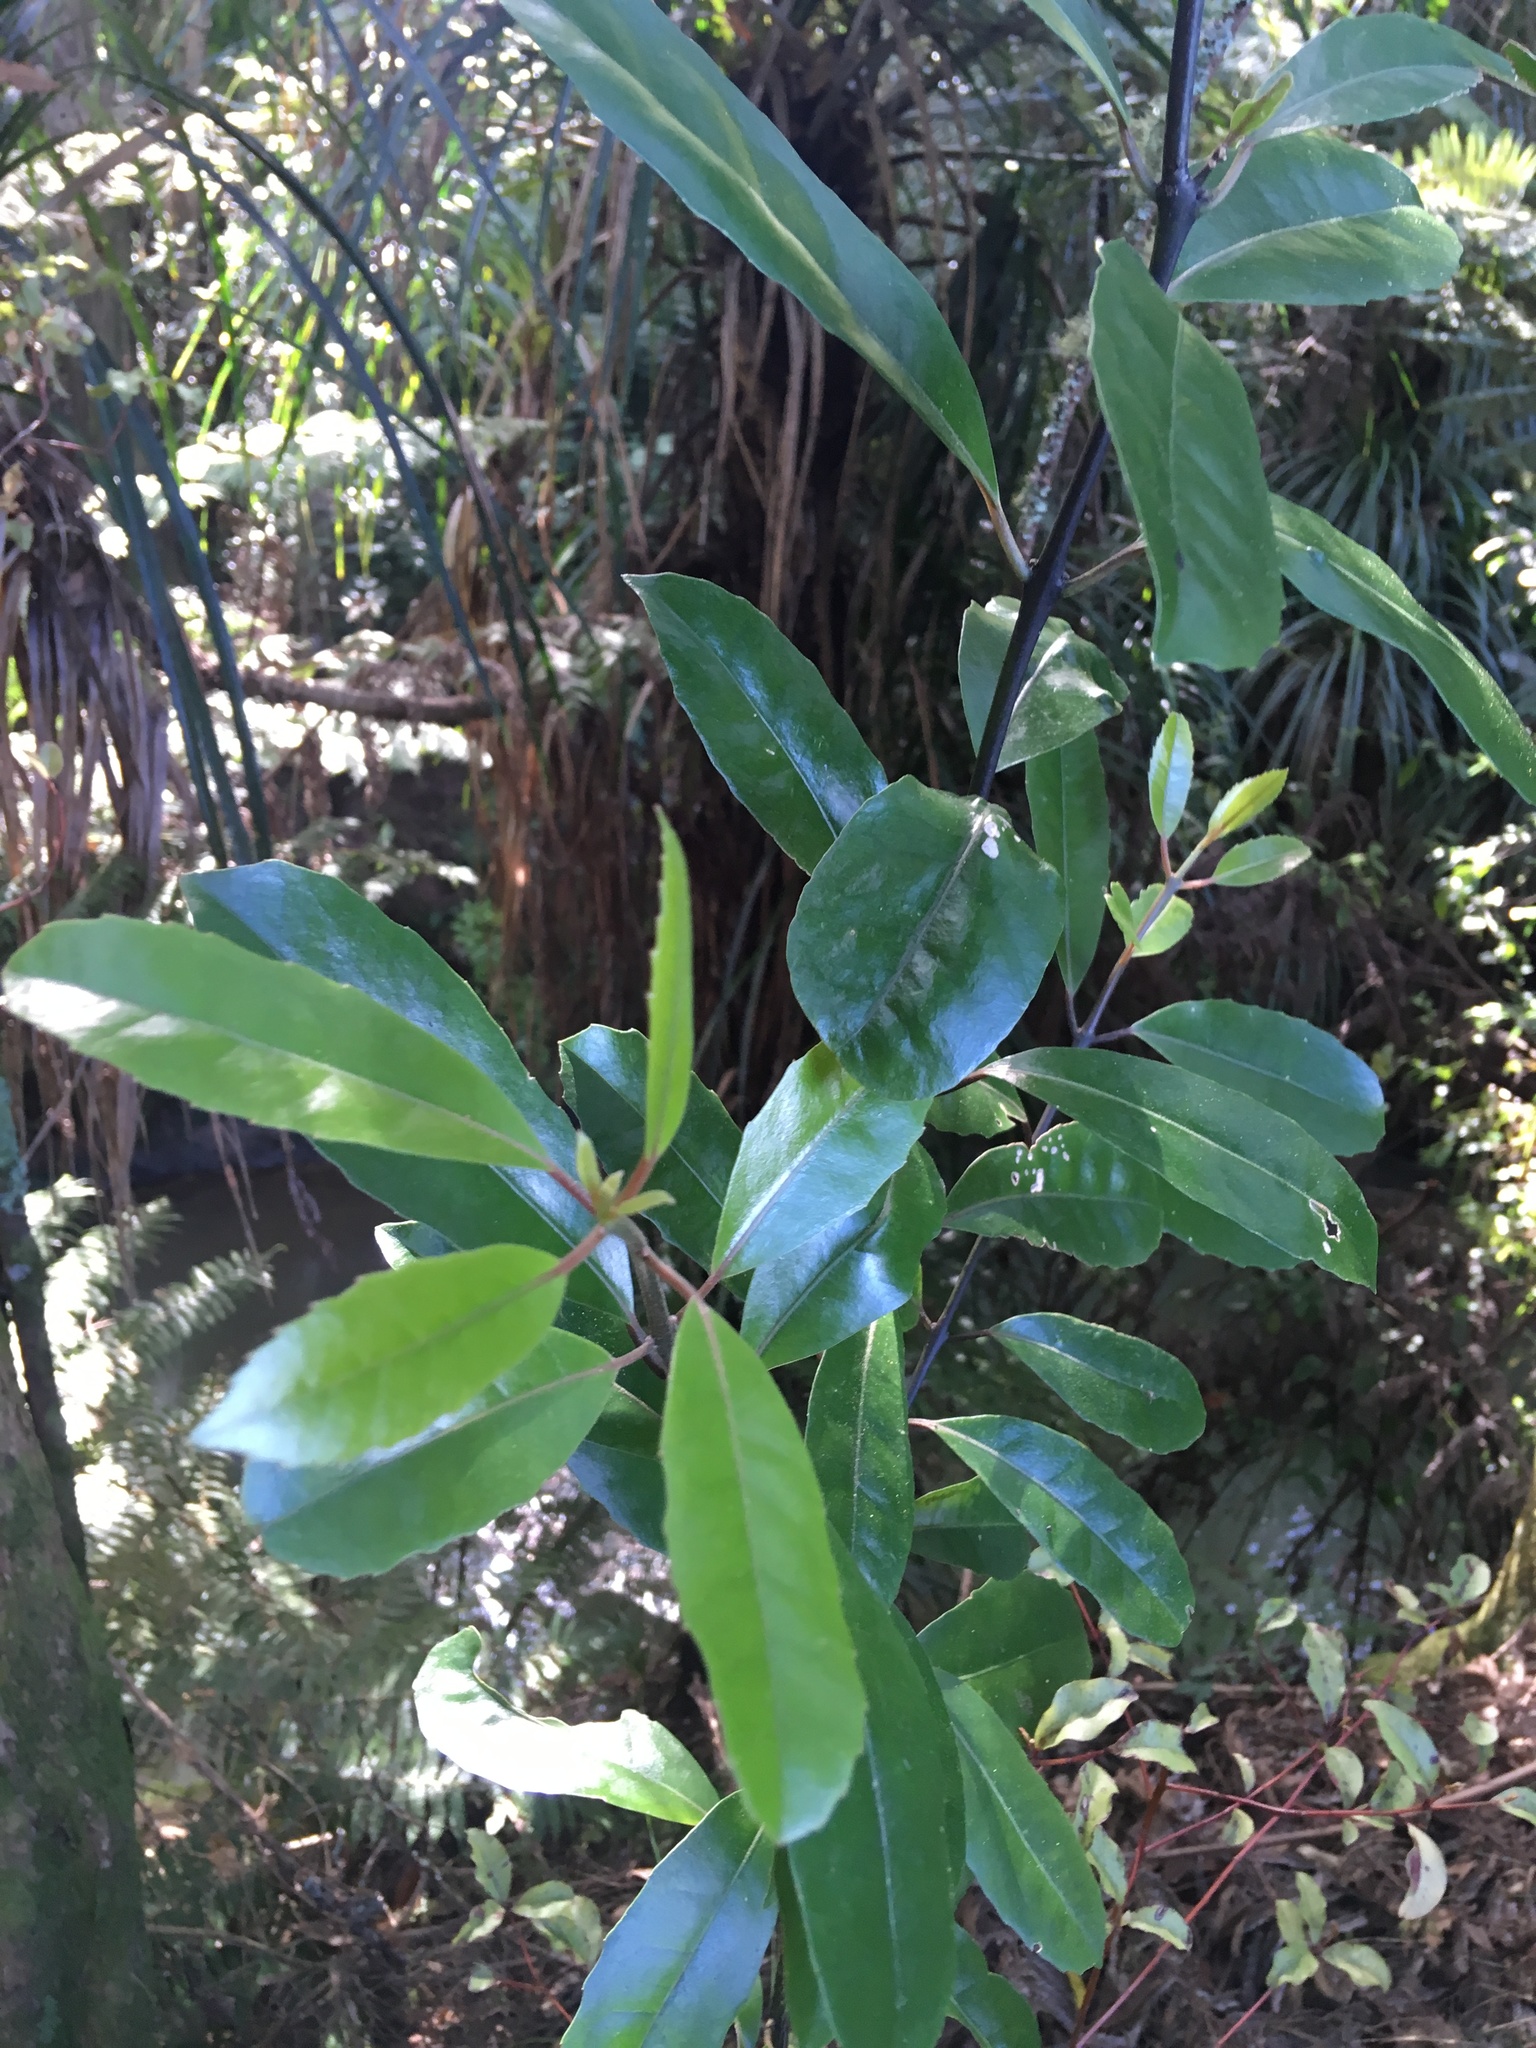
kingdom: Plantae
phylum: Tracheophyta
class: Magnoliopsida
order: Laurales
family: Monimiaceae
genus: Hedycarya
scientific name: Hedycarya arborea
